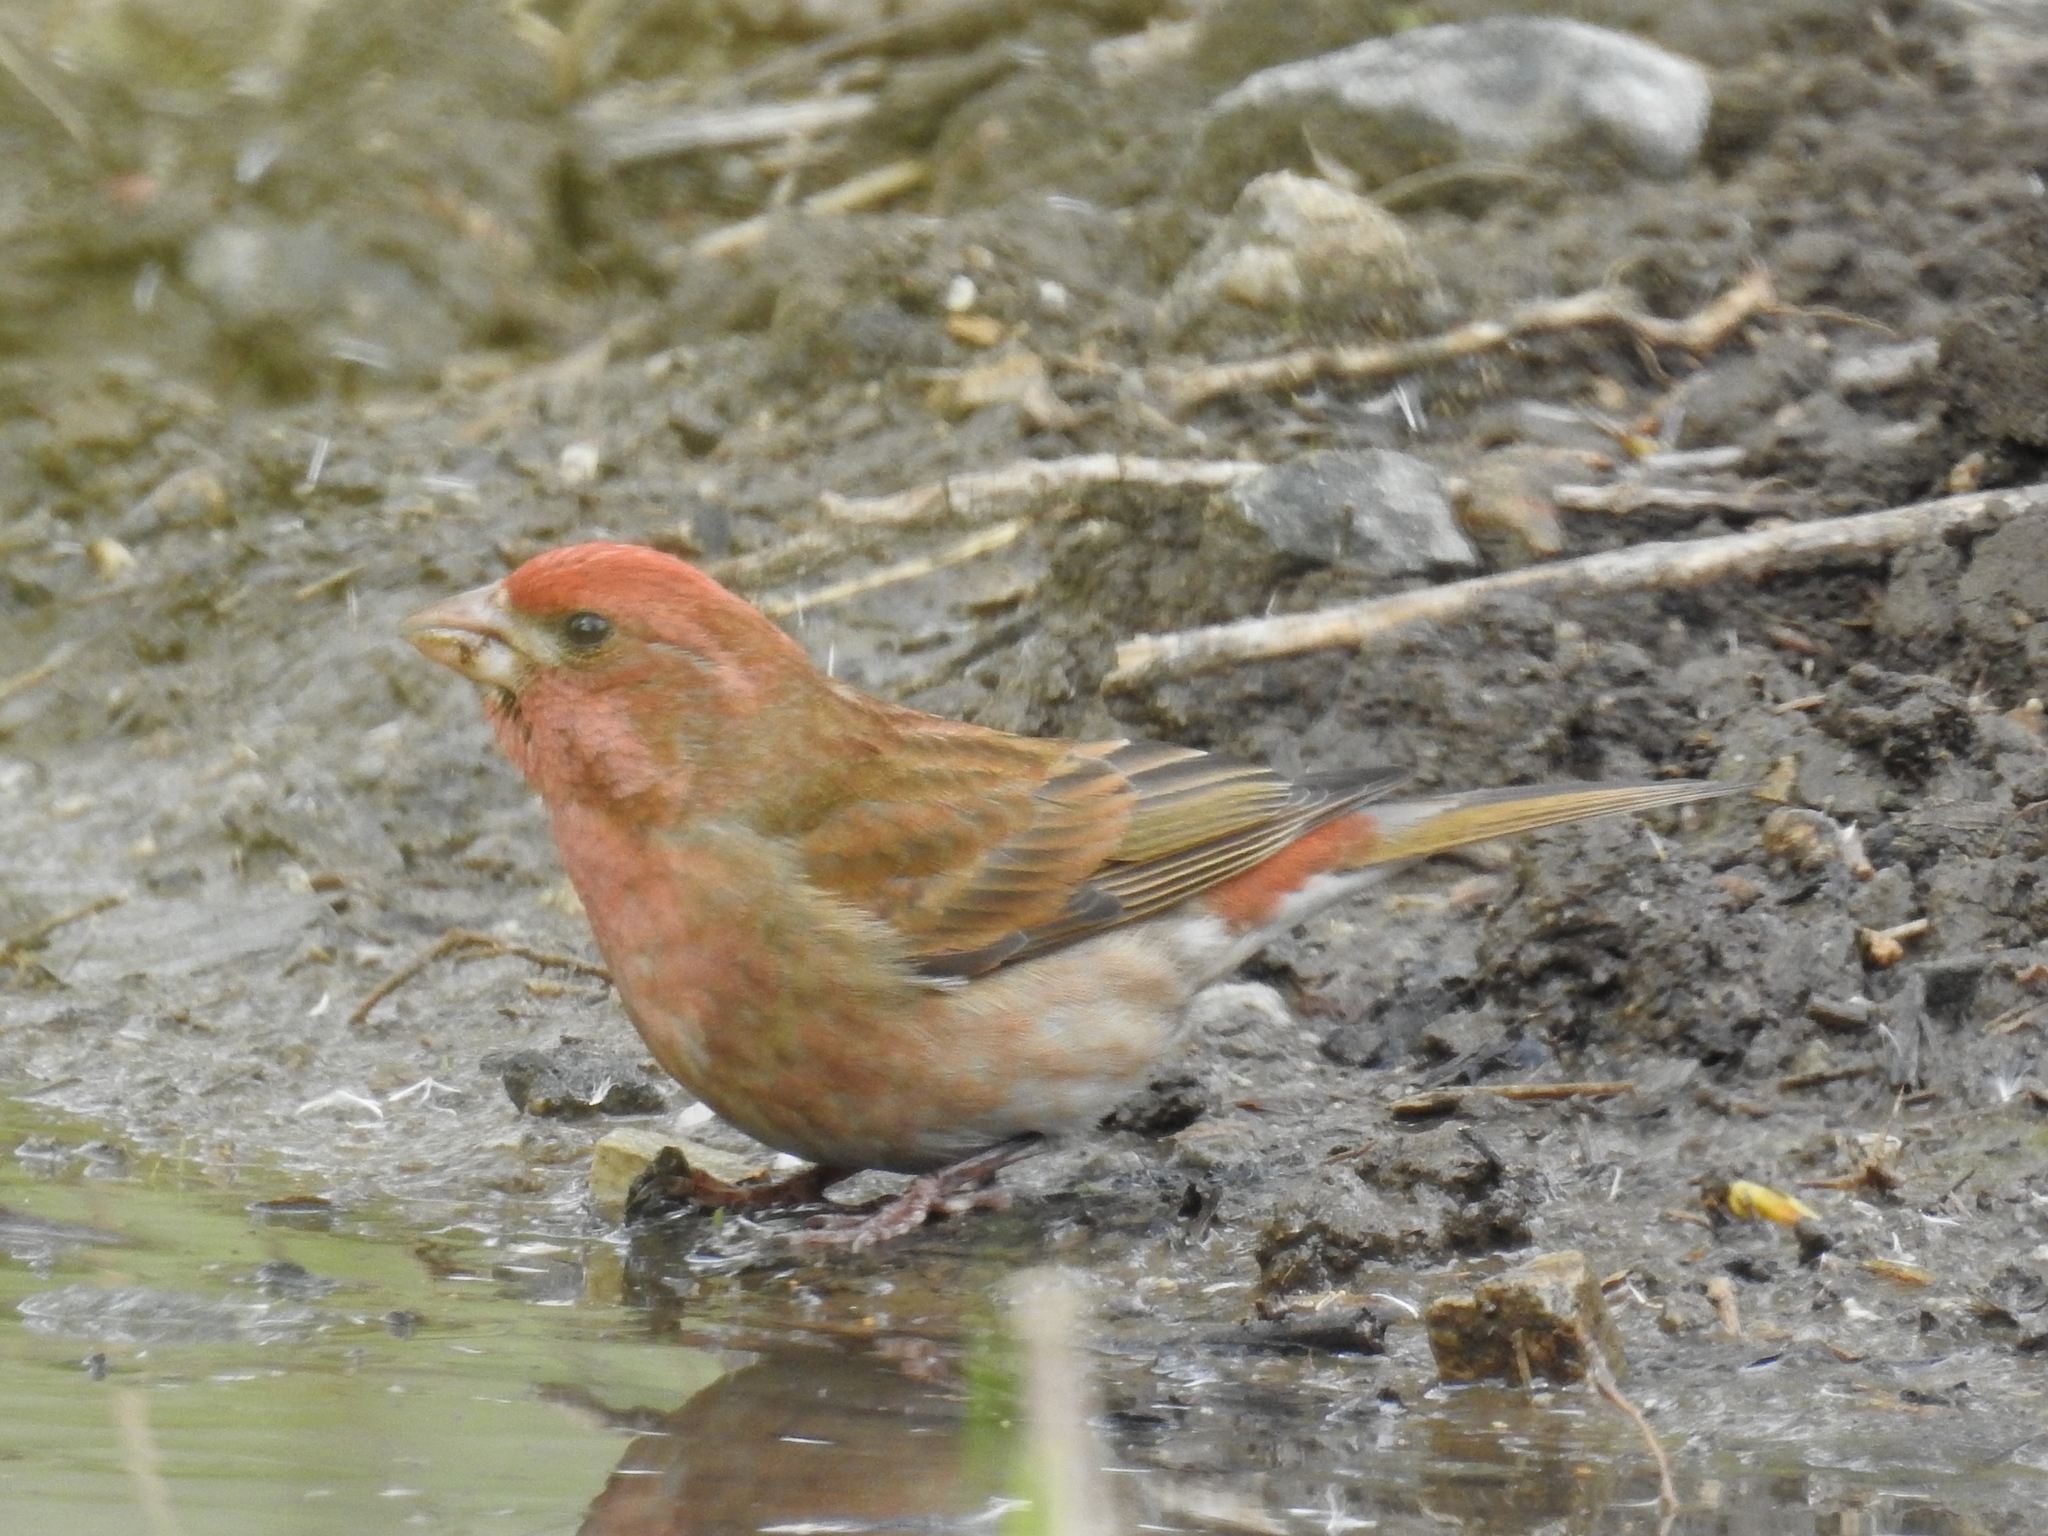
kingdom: Animalia
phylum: Chordata
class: Aves
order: Passeriformes
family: Fringillidae
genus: Haemorhous
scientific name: Haemorhous purpureus
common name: Purple finch
